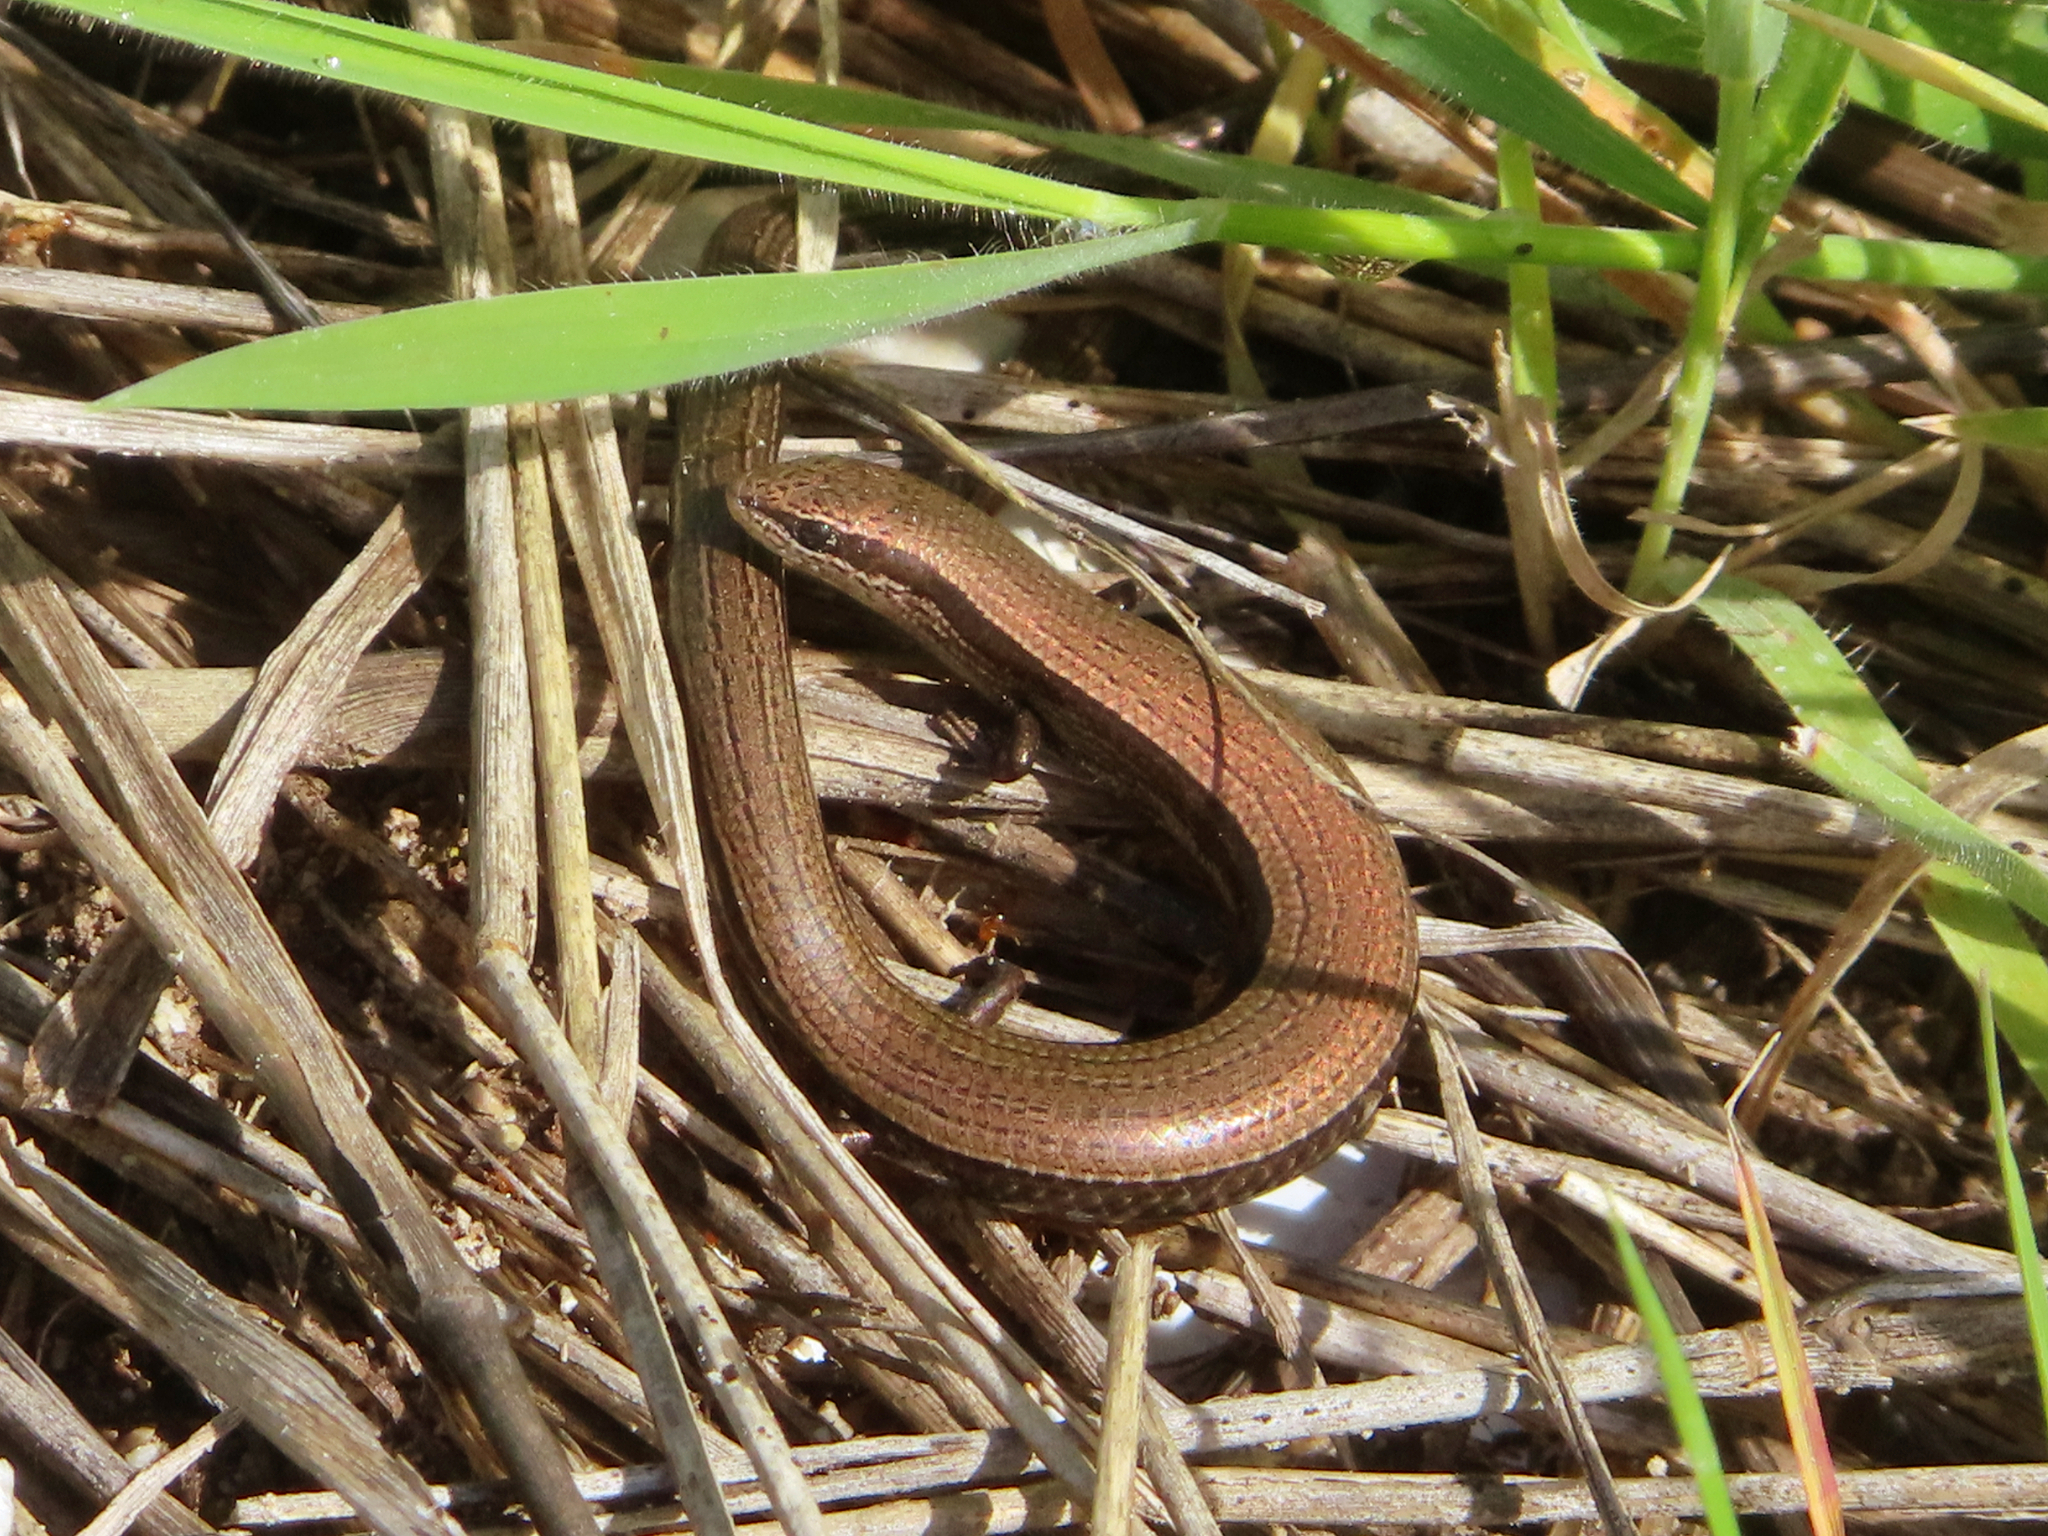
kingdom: Animalia
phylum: Chordata
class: Squamata
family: Scincidae
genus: Ablepharus
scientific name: Ablepharus kitaibelii
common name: Juniper skink
